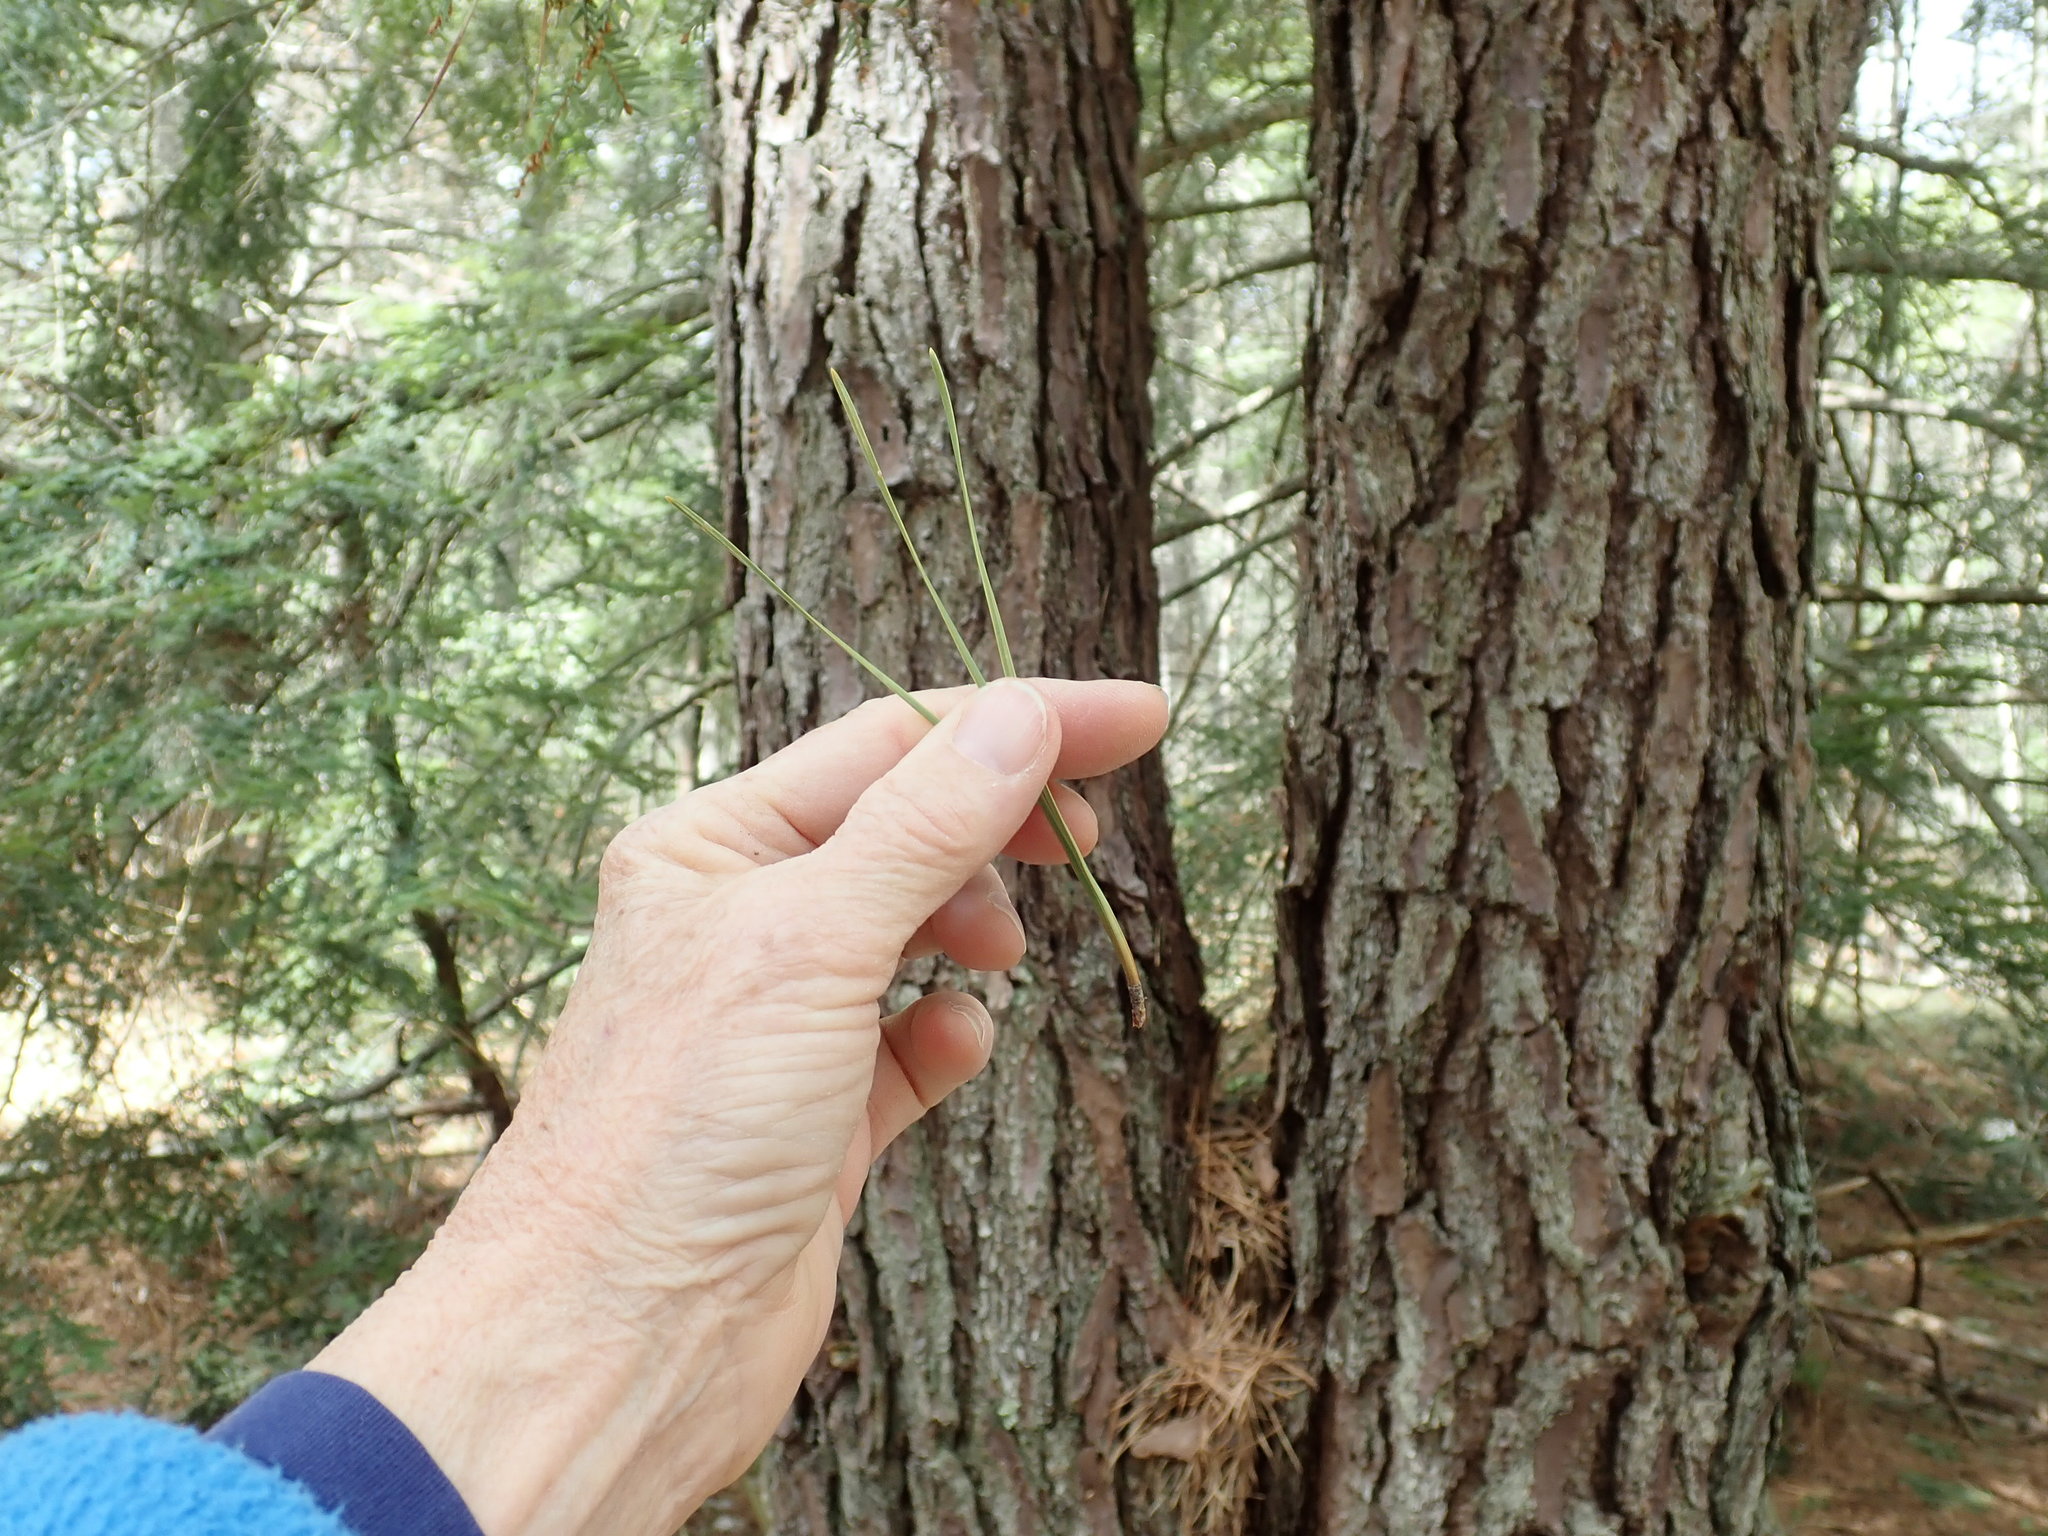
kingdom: Plantae
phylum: Tracheophyta
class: Pinopsida
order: Pinales
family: Pinaceae
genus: Pinus
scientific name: Pinus rigida
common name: Pitch pine
